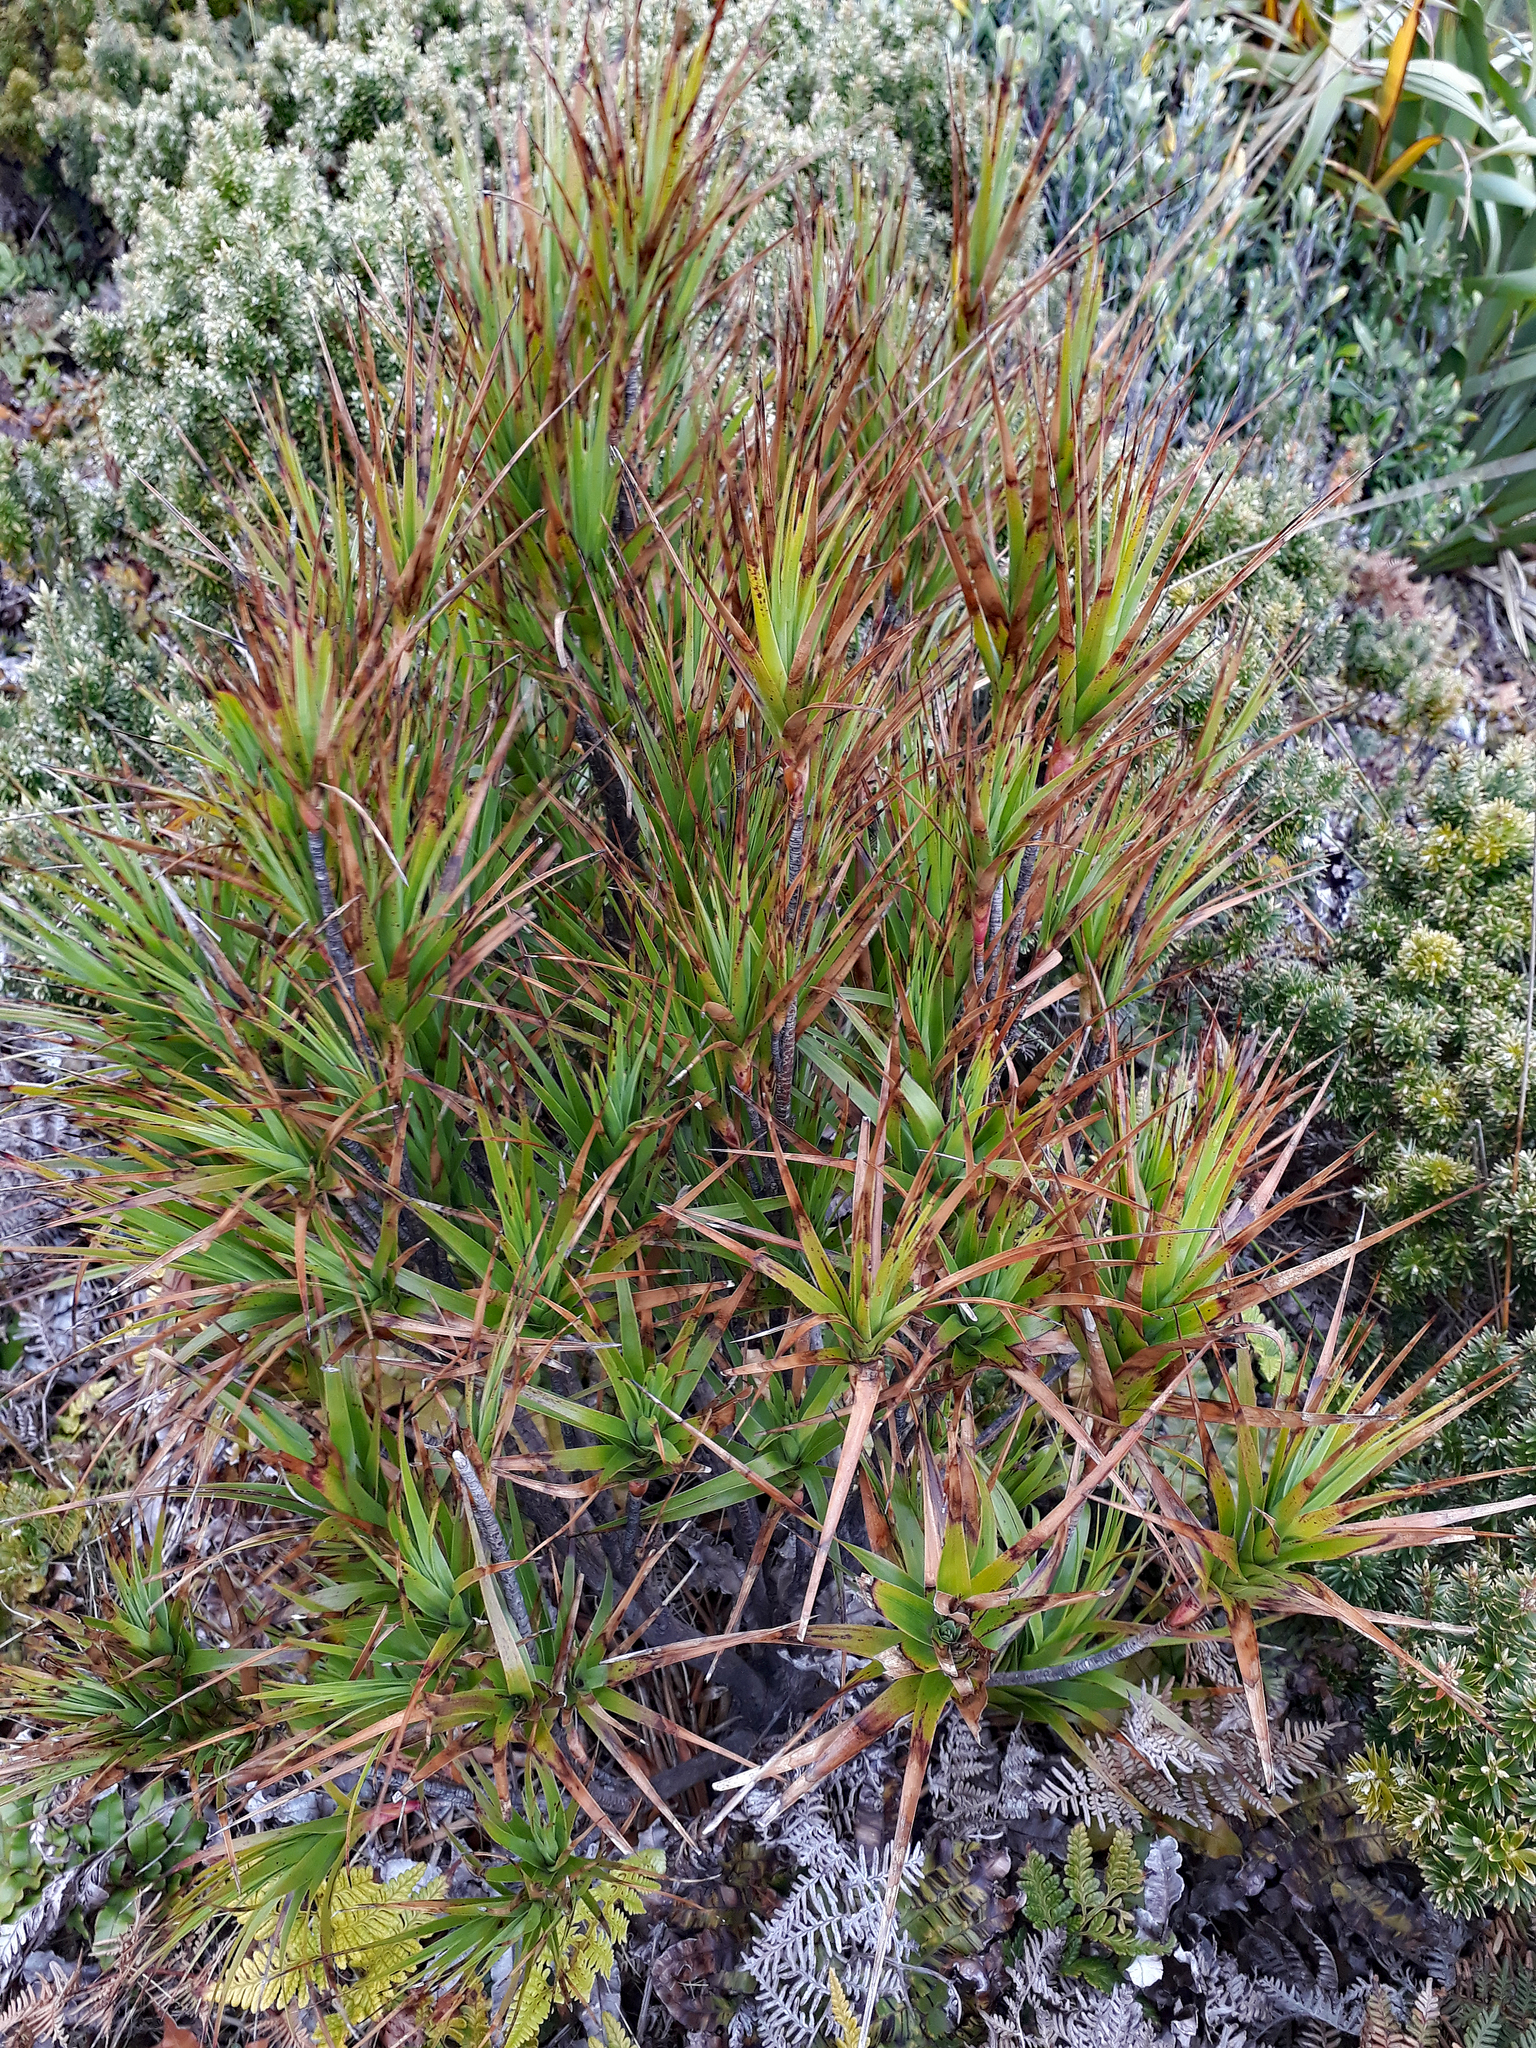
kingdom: Plantae
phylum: Tracheophyta
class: Magnoliopsida
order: Ericales
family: Ericaceae
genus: Dracophyllum
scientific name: Dracophyllum arboreum
